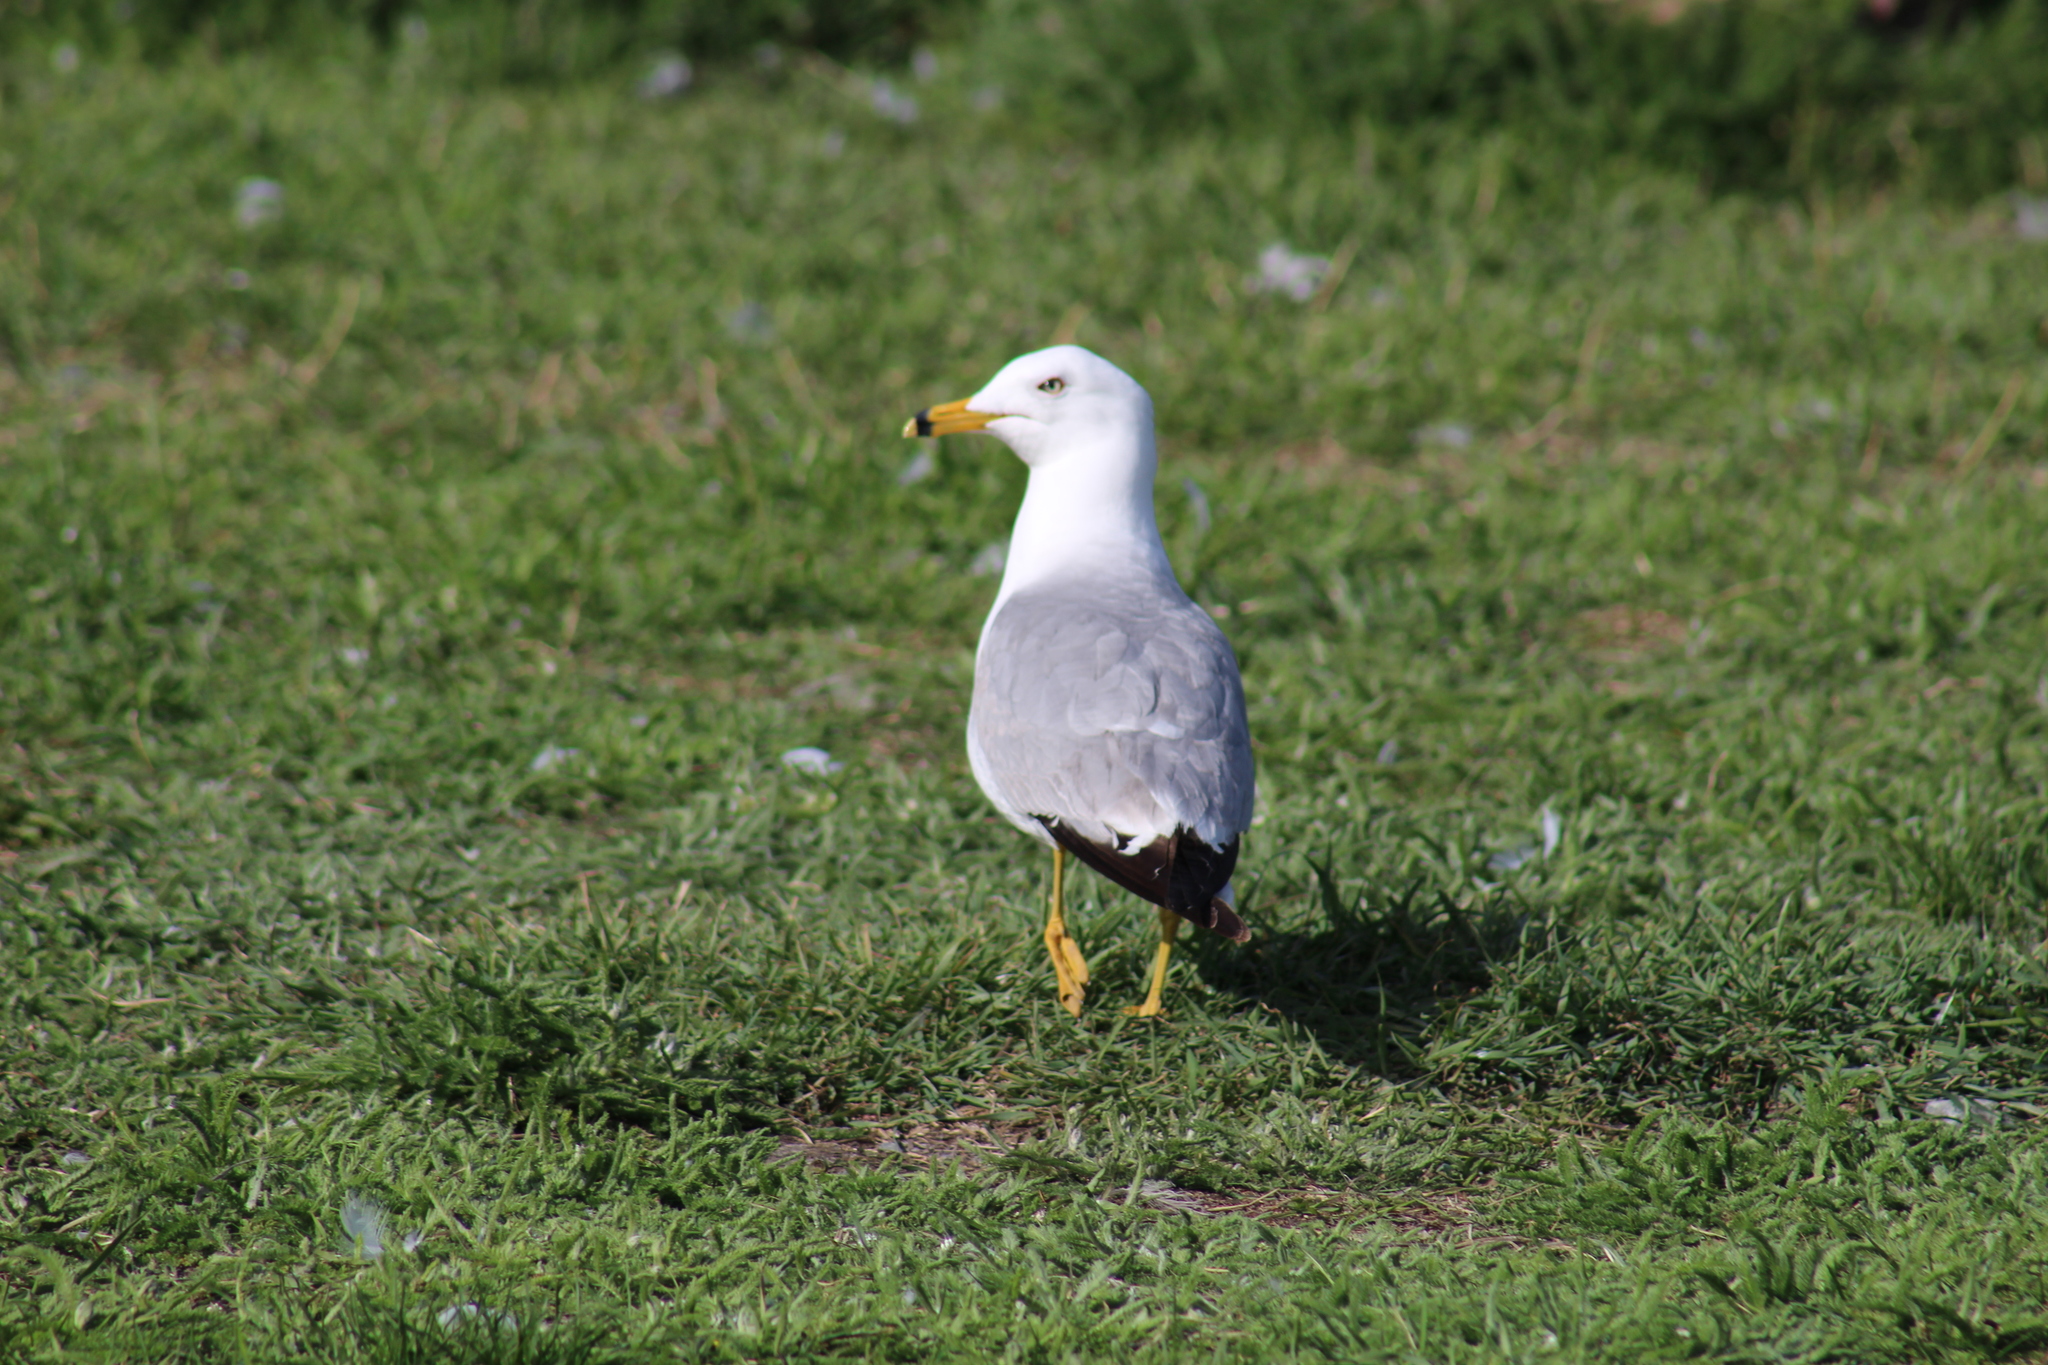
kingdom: Animalia
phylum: Chordata
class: Aves
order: Charadriiformes
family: Laridae
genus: Larus
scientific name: Larus delawarensis
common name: Ring-billed gull
